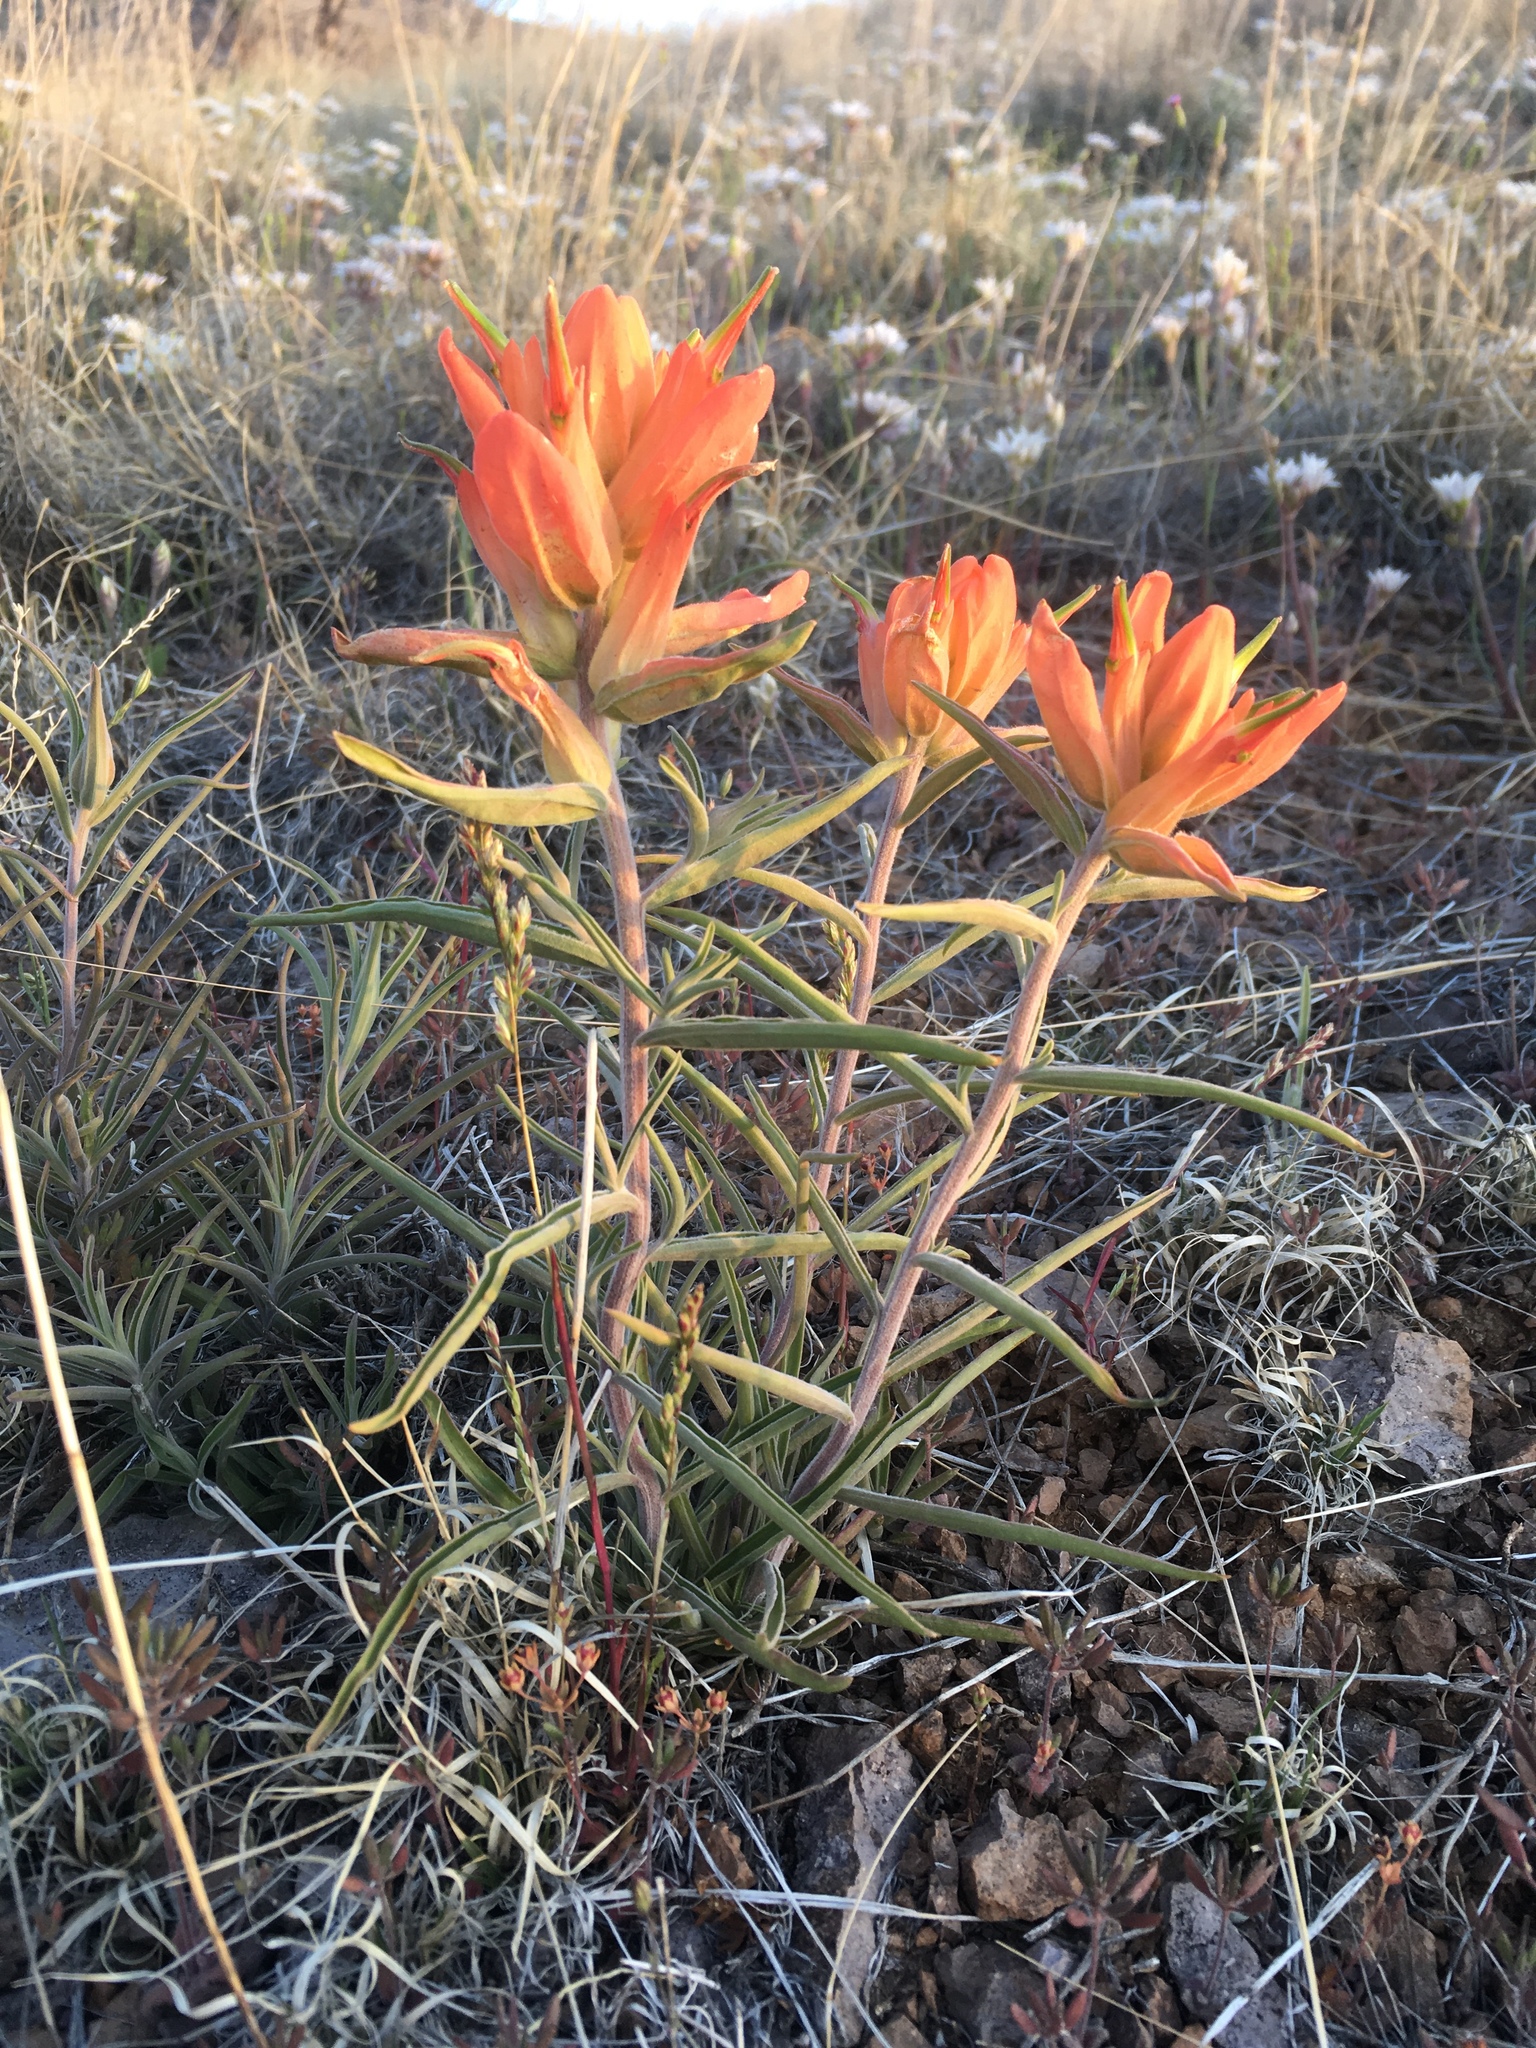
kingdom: Plantae
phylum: Tracheophyta
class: Magnoliopsida
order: Lamiales
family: Orobanchaceae
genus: Castilleja
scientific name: Castilleja integra
